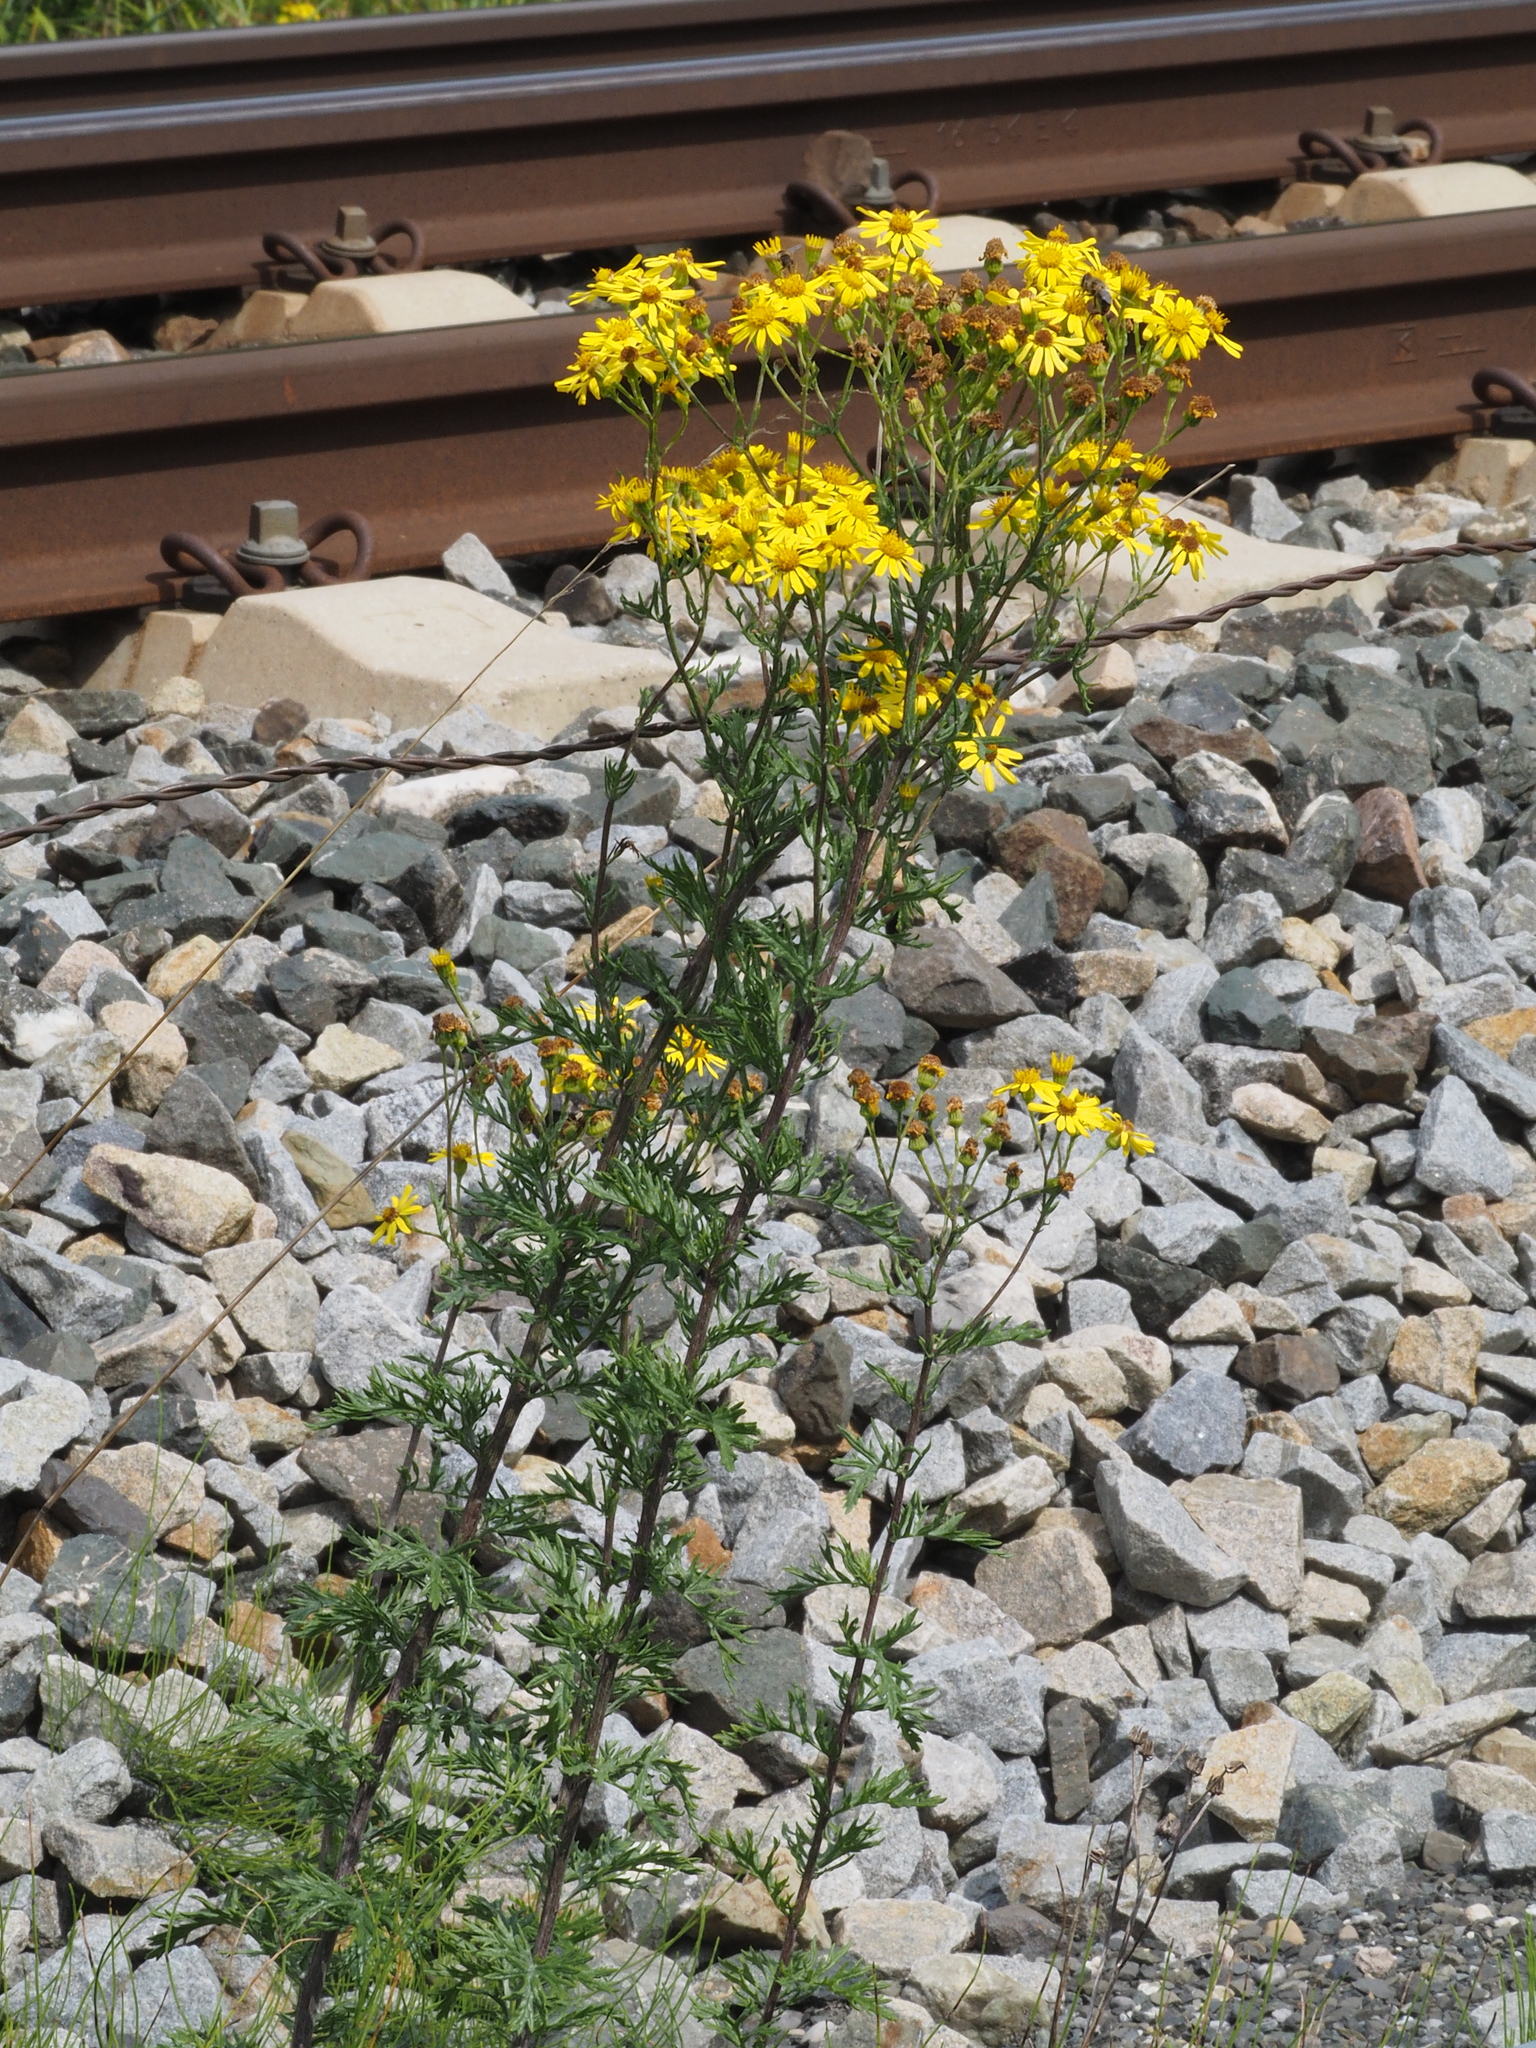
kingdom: Plantae
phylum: Tracheophyta
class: Magnoliopsida
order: Asterales
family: Asteraceae
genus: Jacobaea
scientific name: Jacobaea vulgaris
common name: Stinking willie
